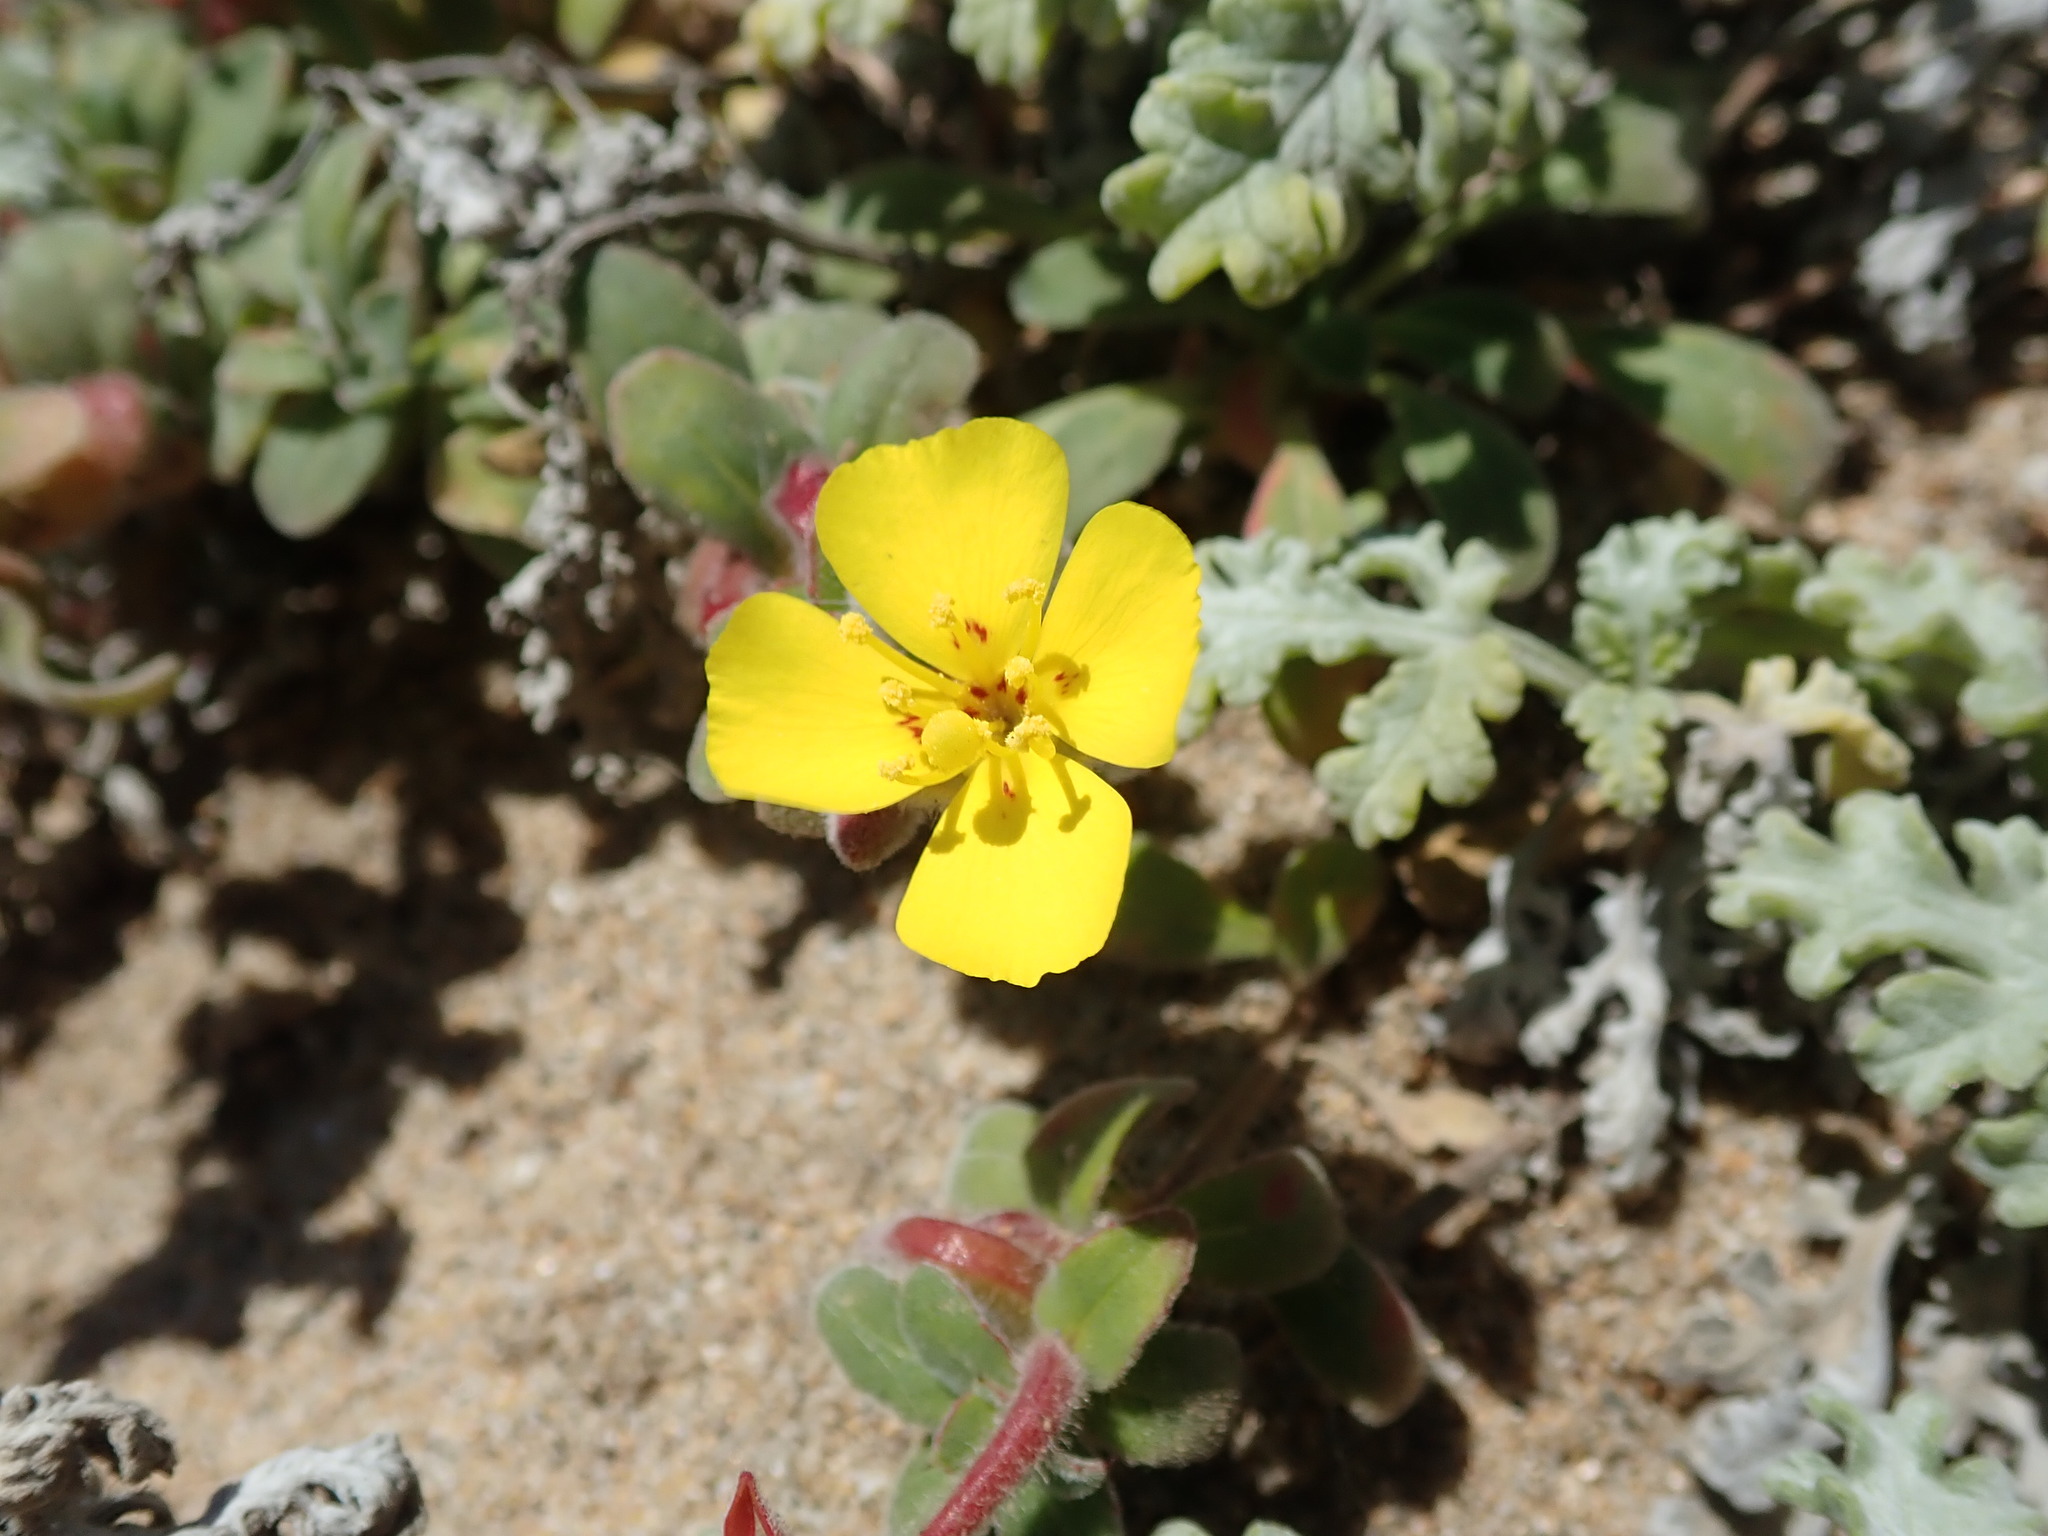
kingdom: Plantae
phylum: Tracheophyta
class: Magnoliopsida
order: Myrtales
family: Onagraceae
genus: Camissoniopsis
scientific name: Camissoniopsis cheiranthifolia
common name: Beach suncup
